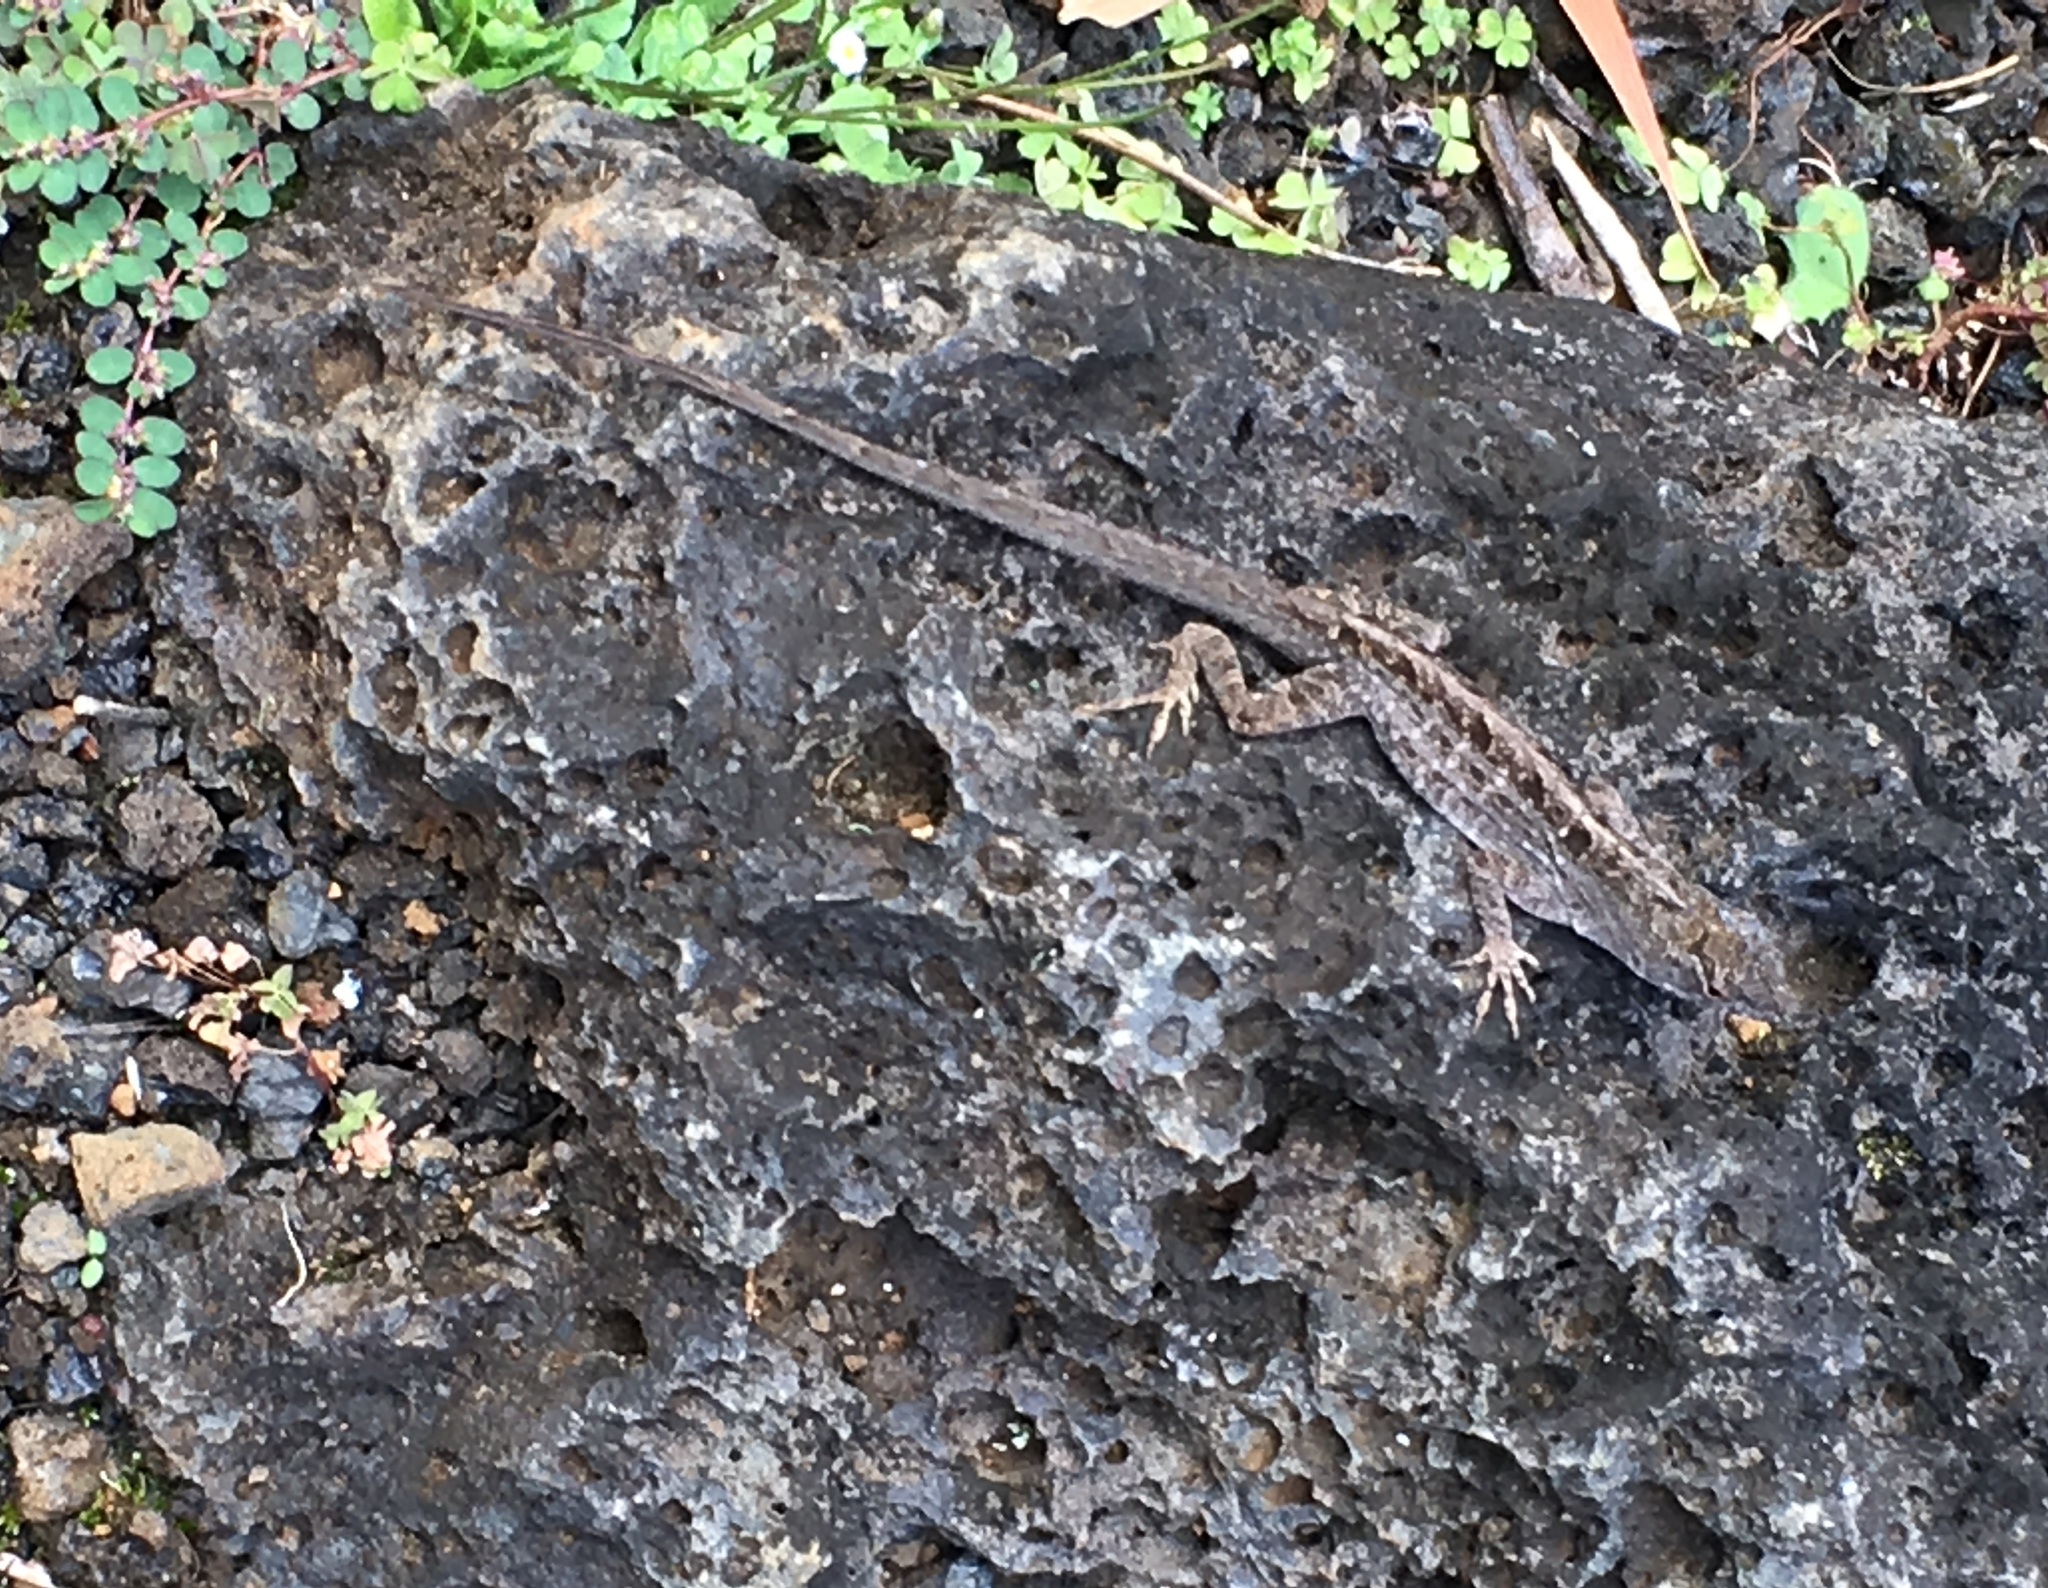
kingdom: Animalia
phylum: Chordata
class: Squamata
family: Dactyloidae
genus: Anolis
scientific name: Anolis sagrei
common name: Brown anole
